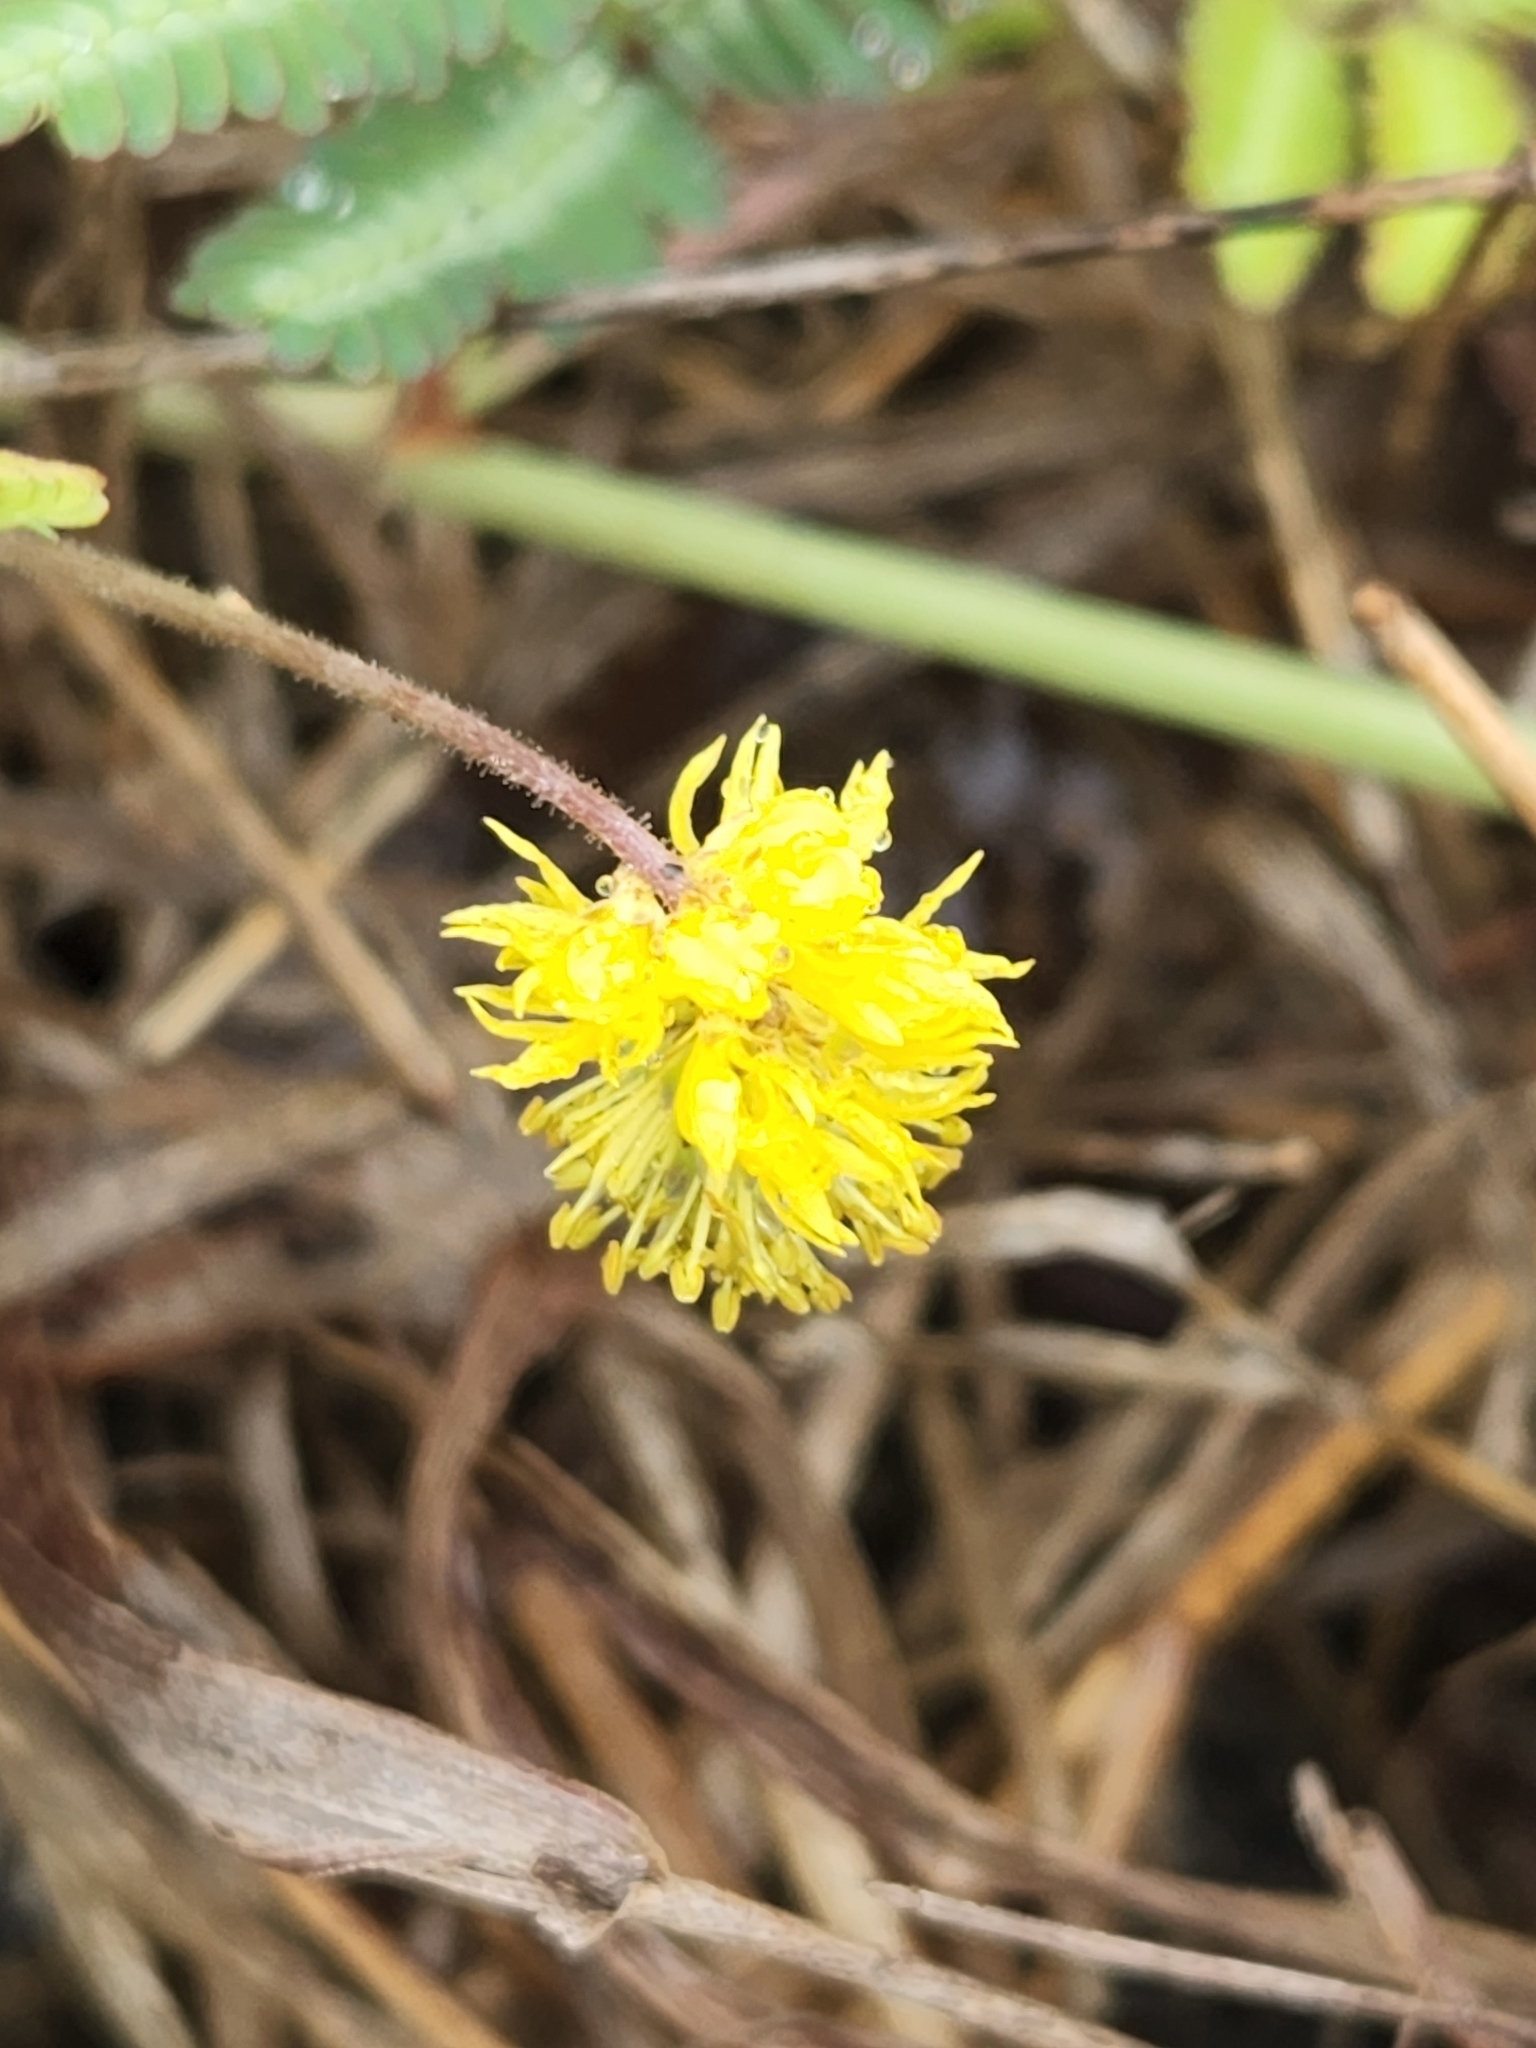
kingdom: Plantae
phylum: Tracheophyta
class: Magnoliopsida
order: Fabales
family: Fabaceae
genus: Neptunia
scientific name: Neptunia pubescens
